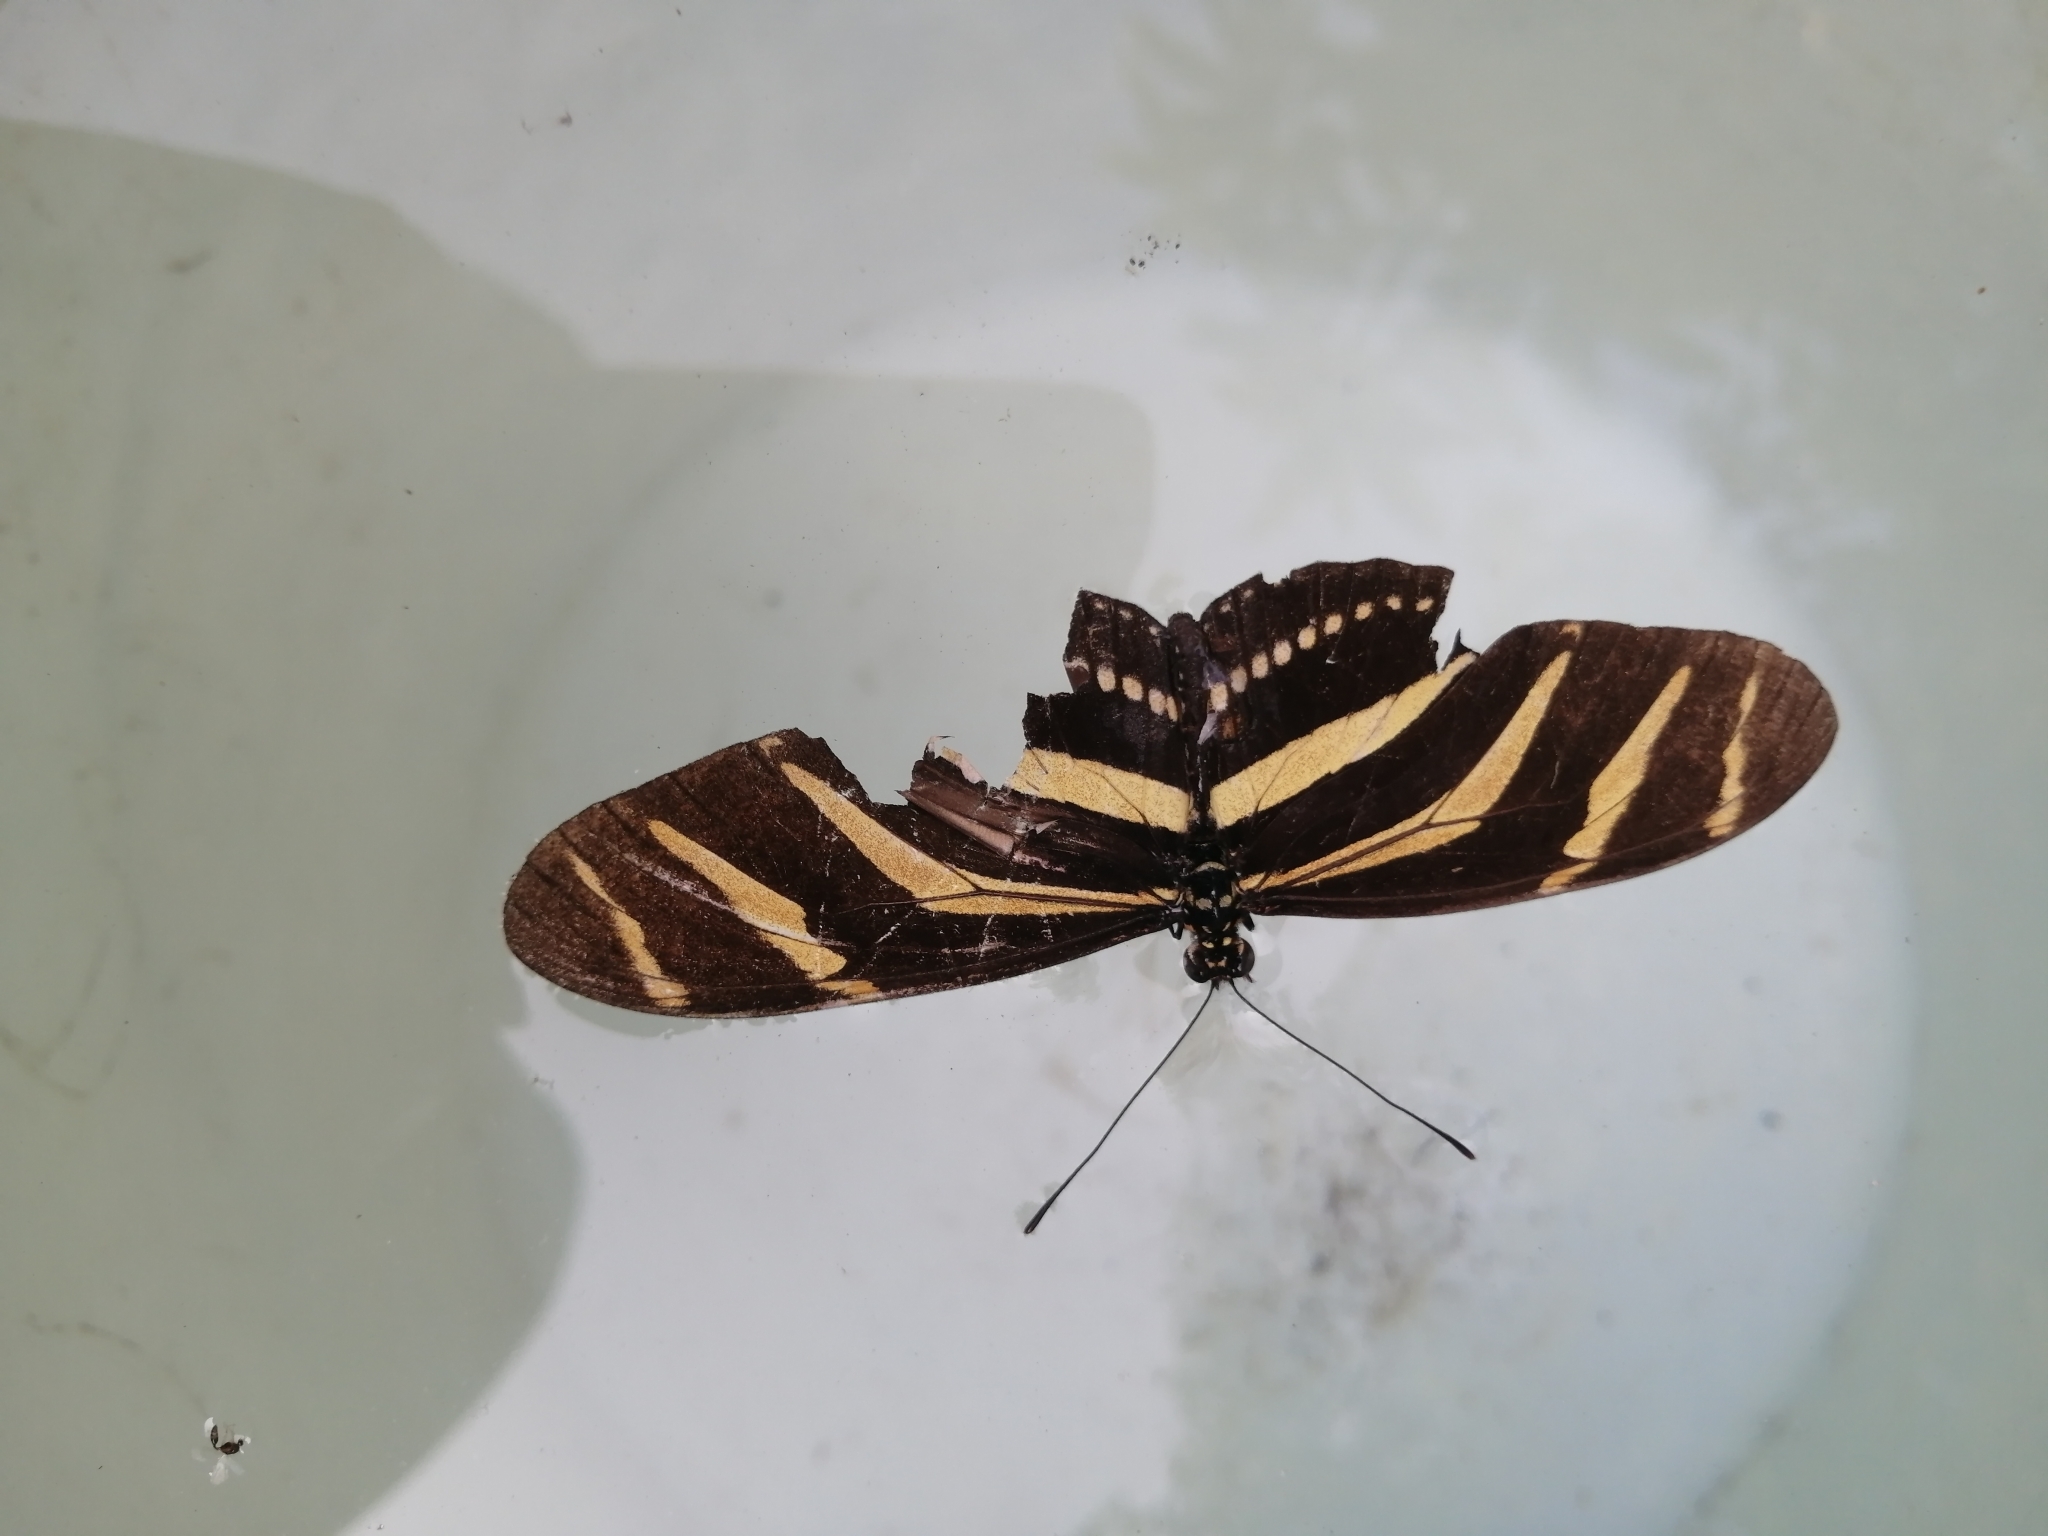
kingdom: Animalia
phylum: Arthropoda
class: Insecta
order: Lepidoptera
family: Nymphalidae
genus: Heliconius
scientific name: Heliconius charithonia
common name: Zebra long wing
